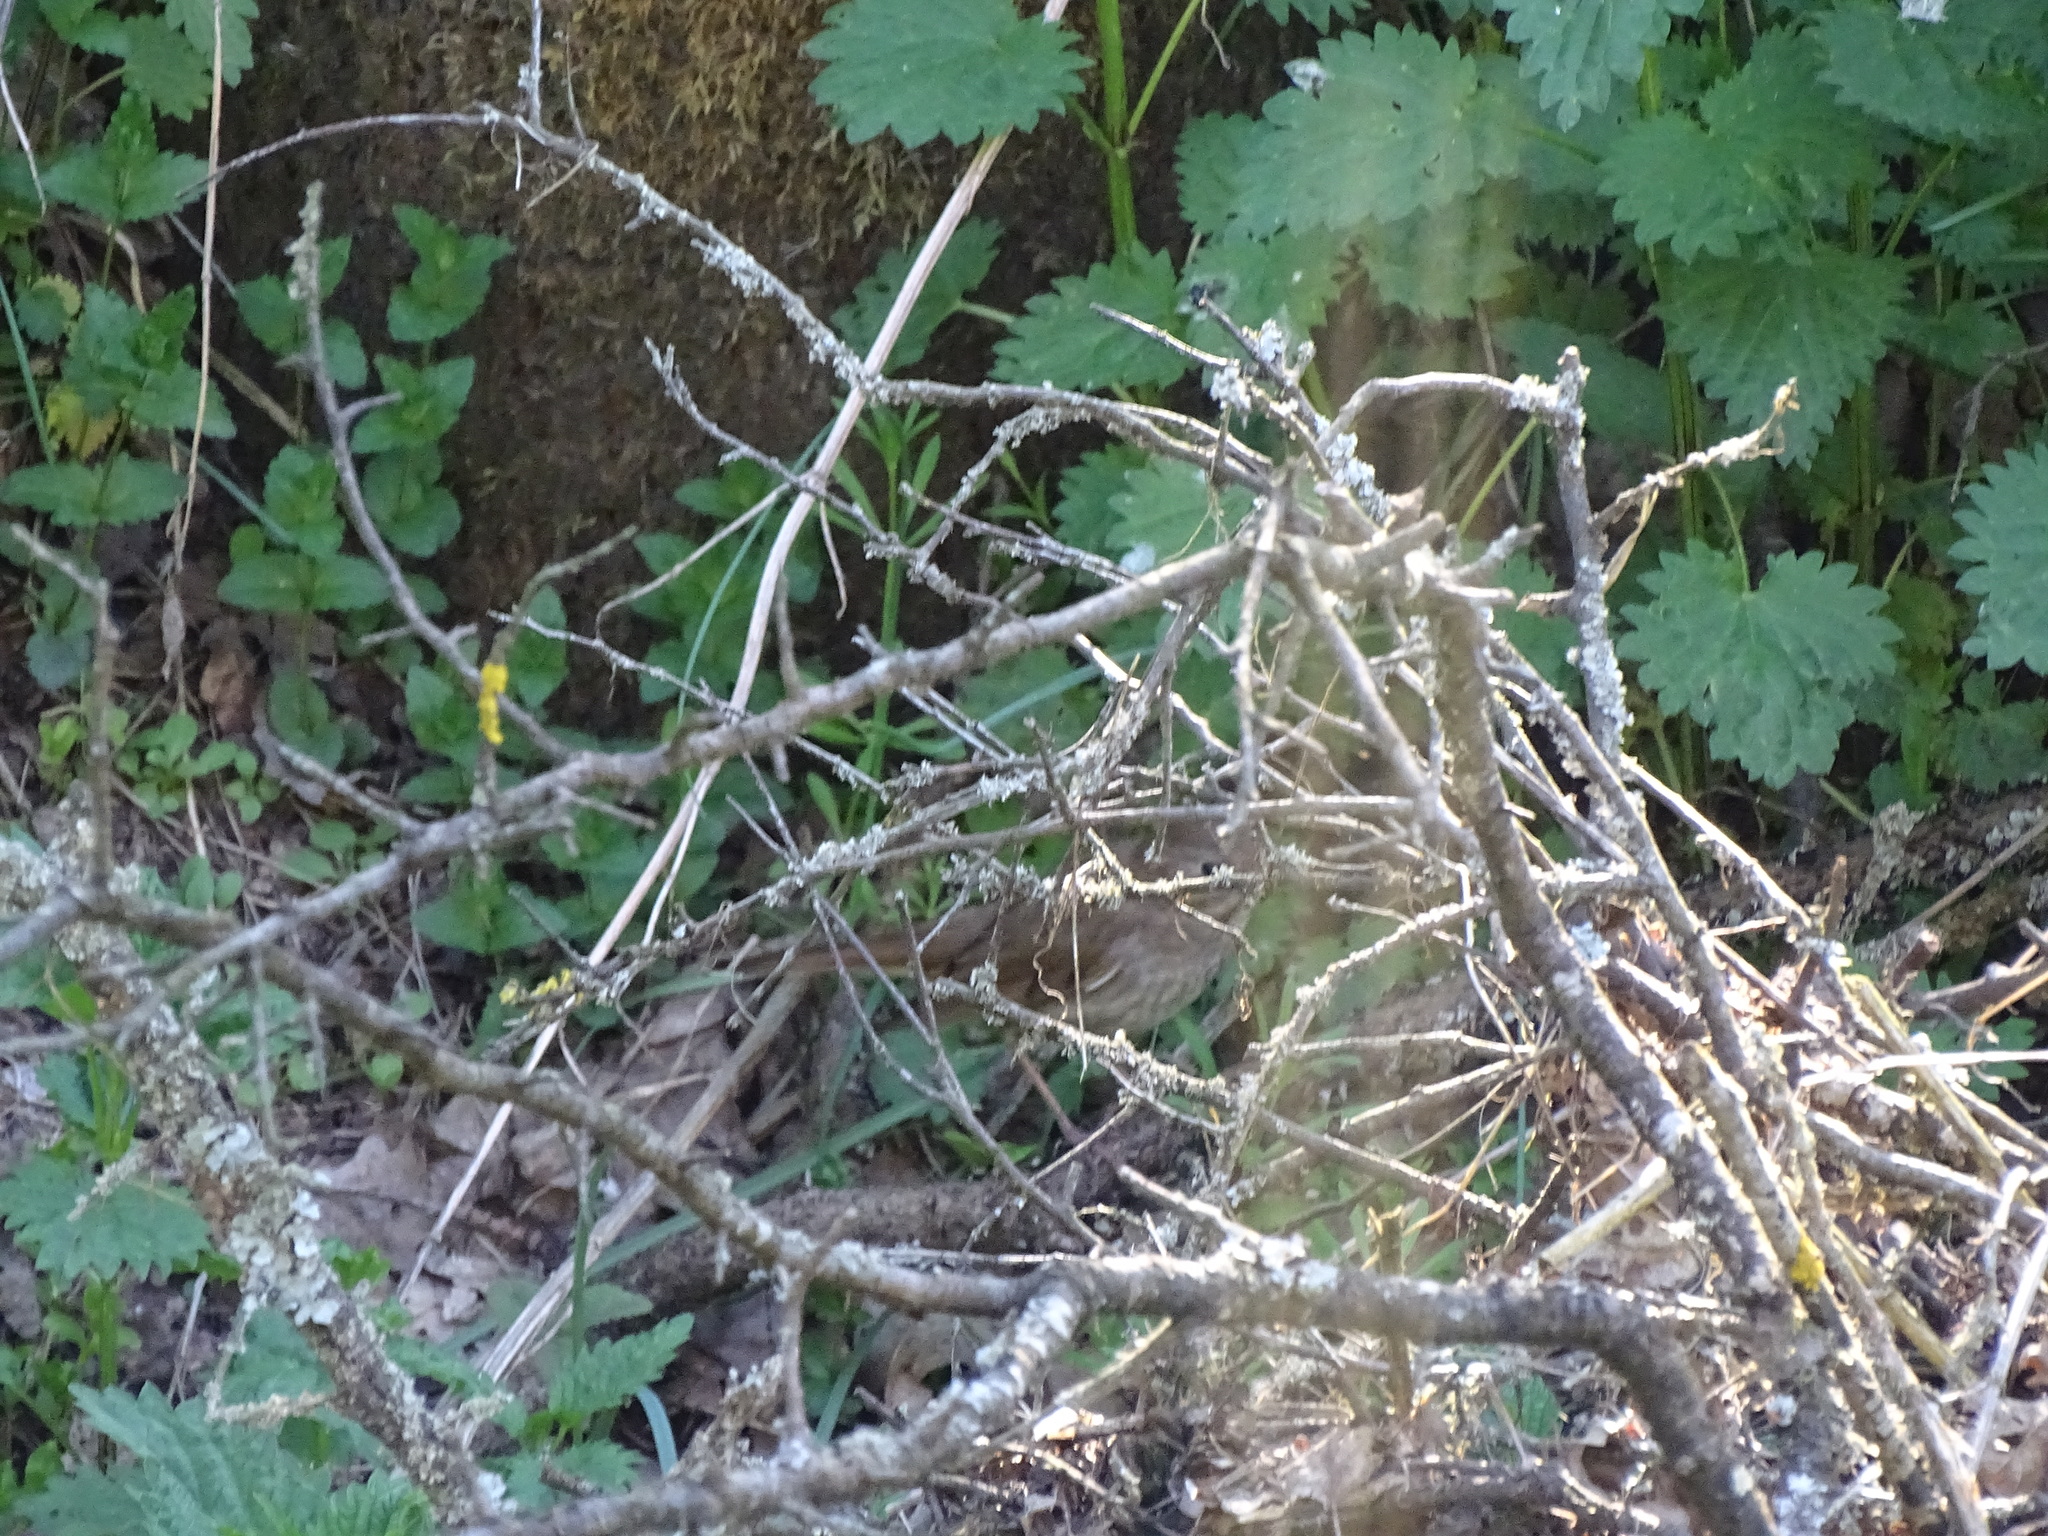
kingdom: Animalia
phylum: Chordata
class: Aves
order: Passeriformes
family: Muscicapidae
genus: Luscinia
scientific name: Luscinia luscinia
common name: Thrush nightingale
